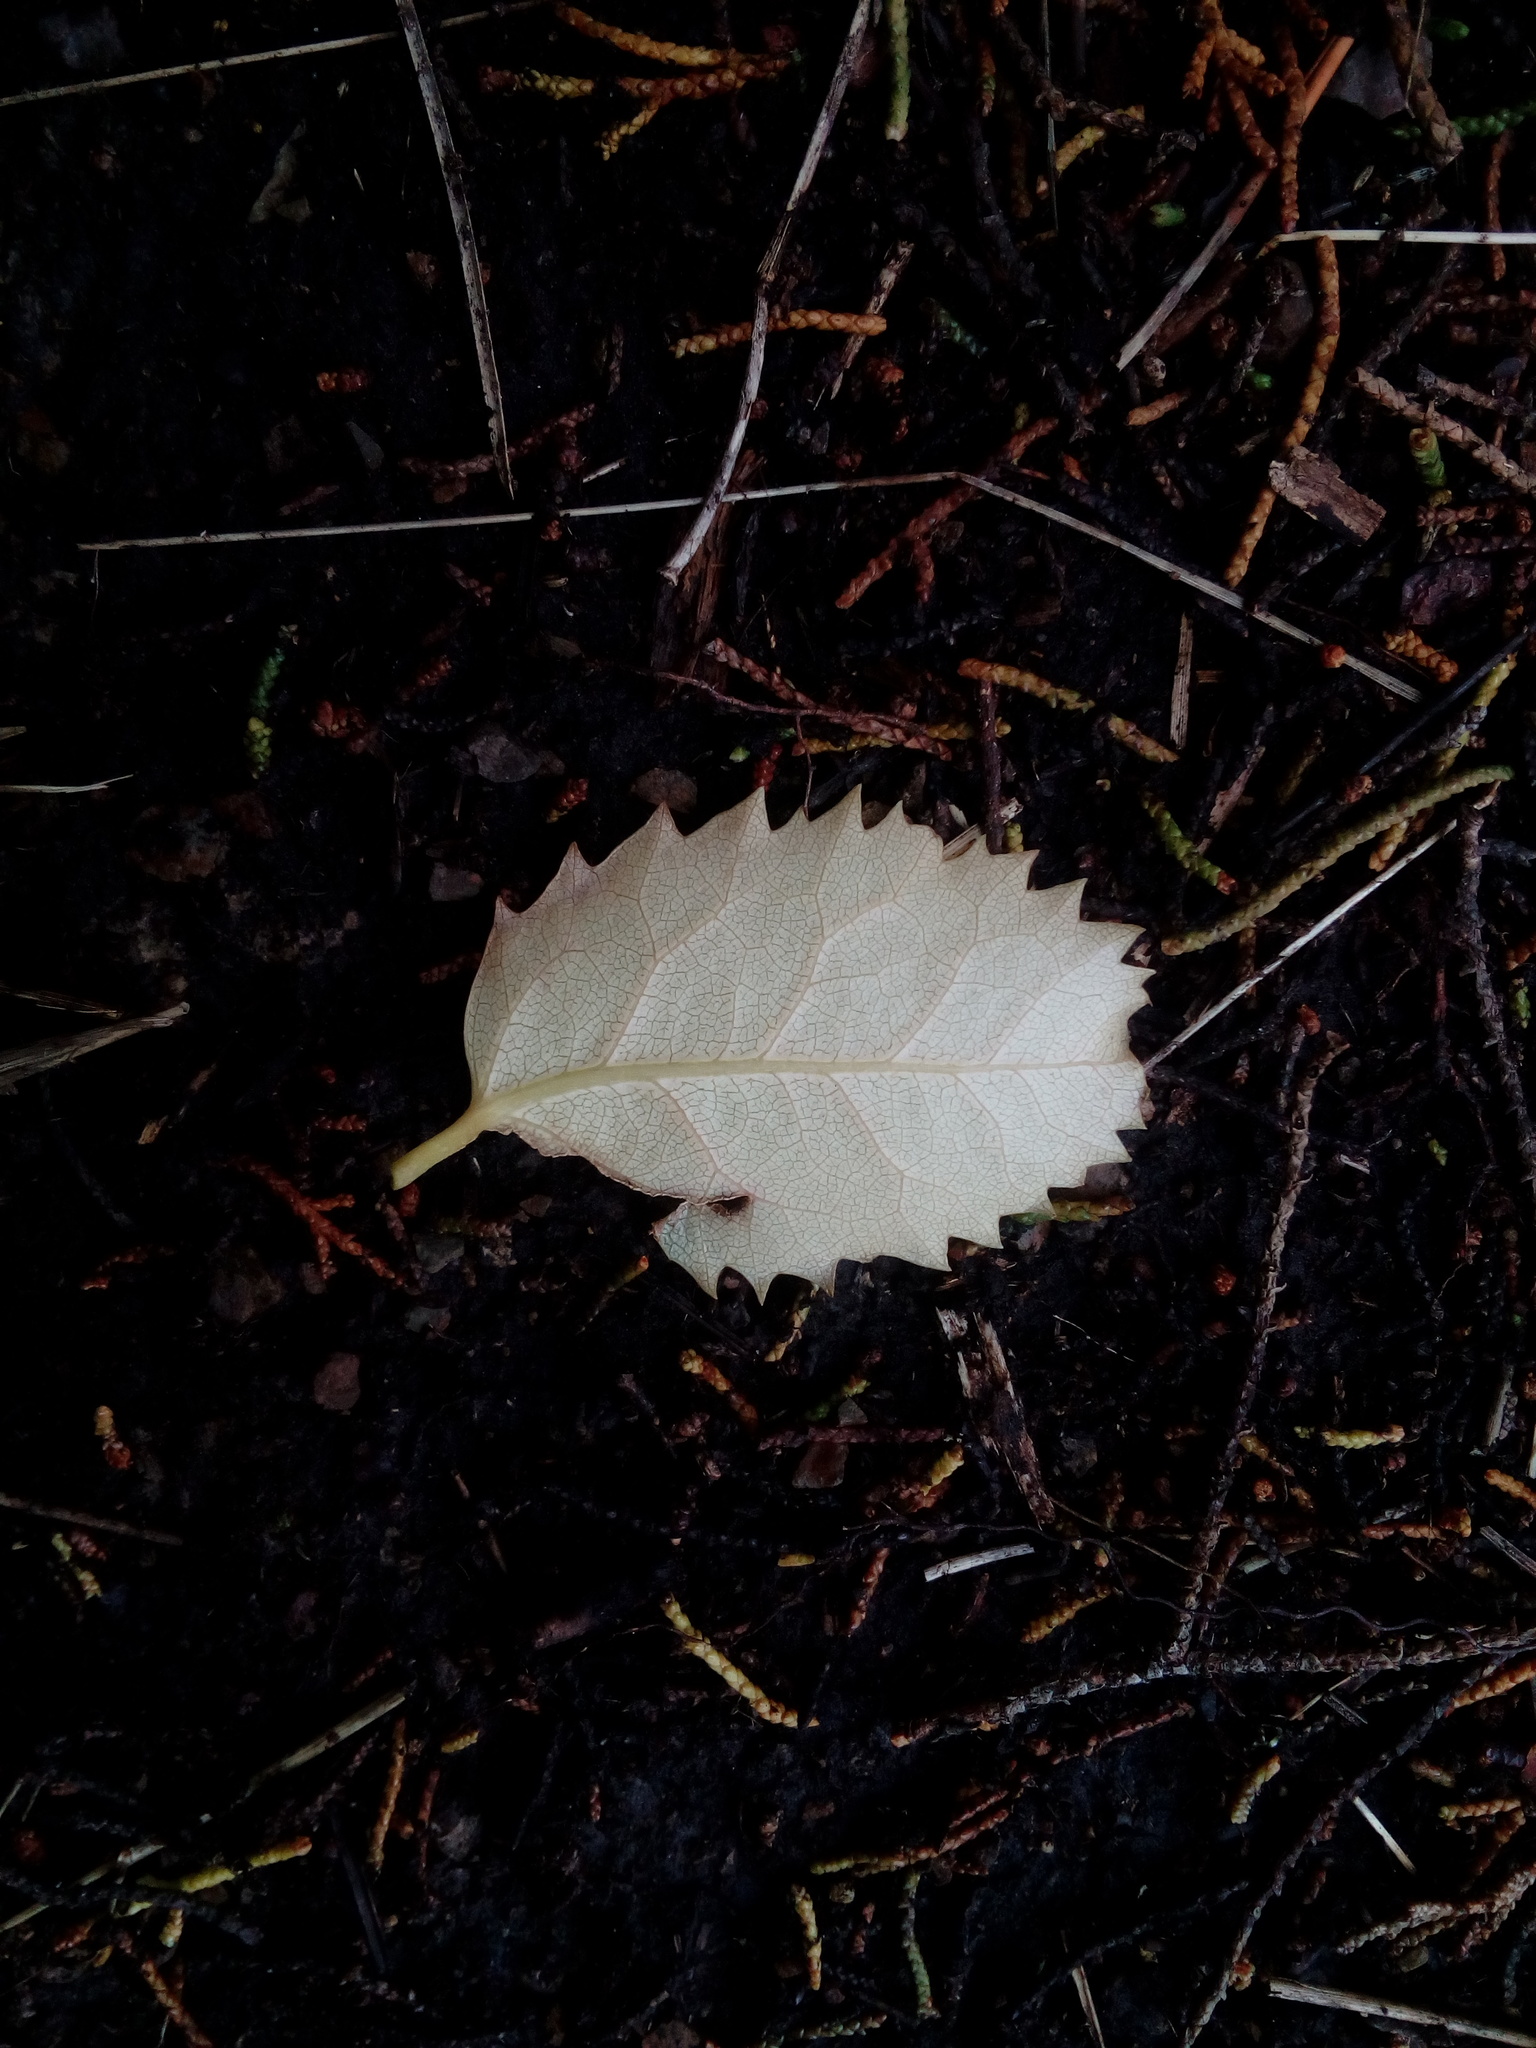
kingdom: Plantae
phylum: Tracheophyta
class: Magnoliopsida
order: Malvales
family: Malvaceae
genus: Hoheria
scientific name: Hoheria populnea
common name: Lacebark
